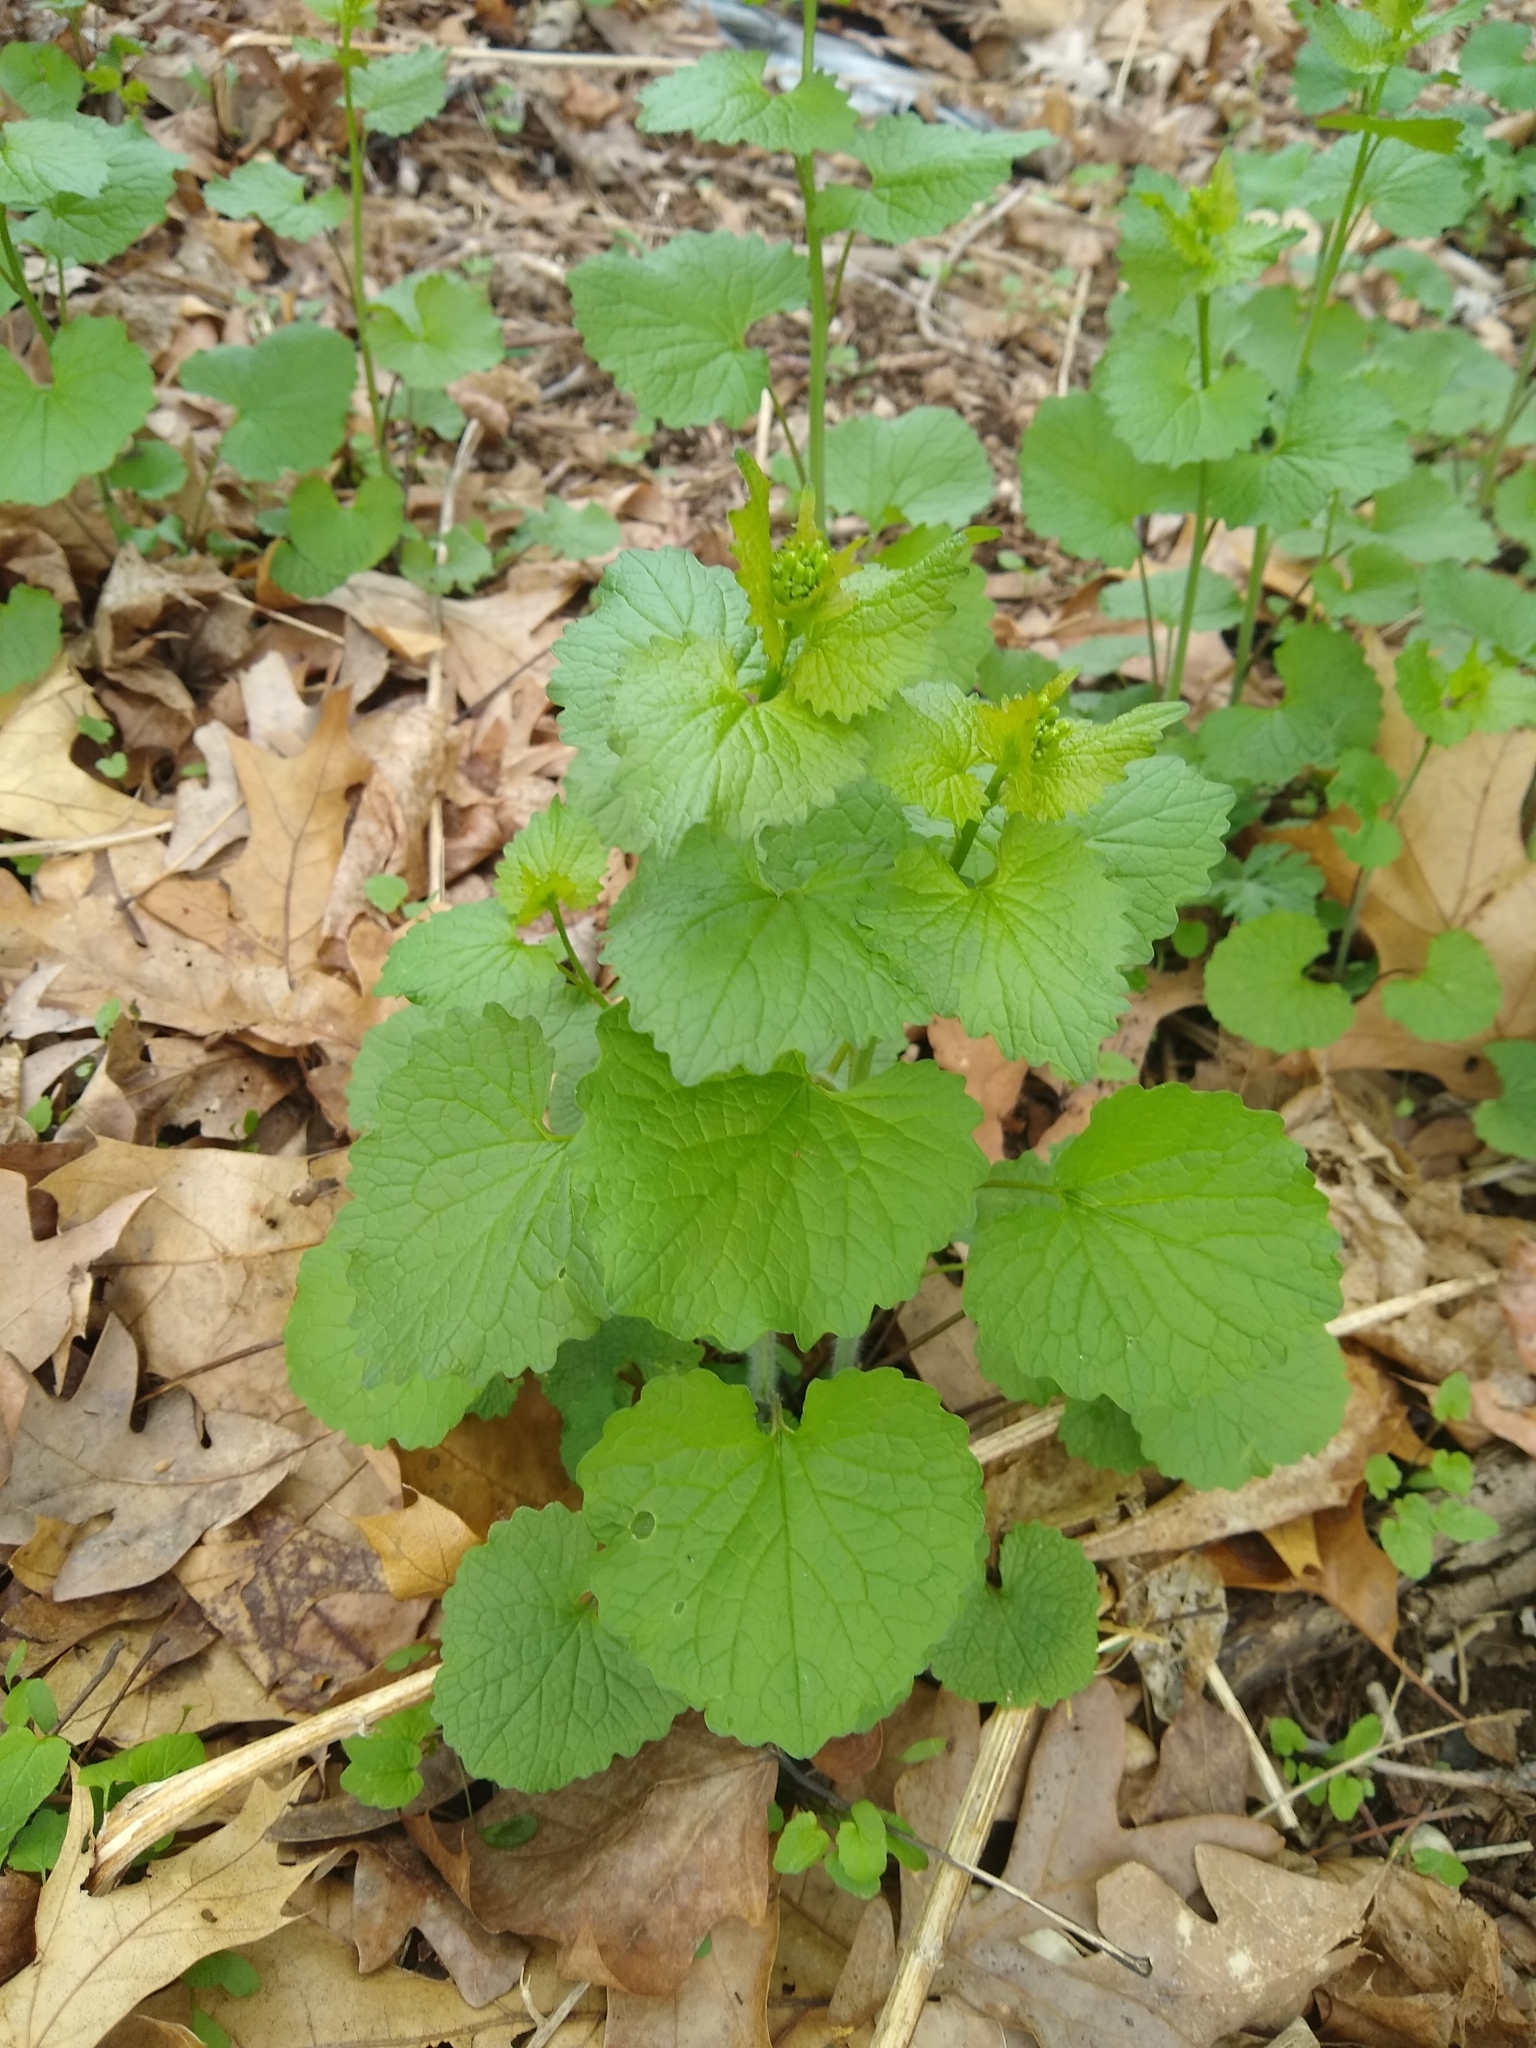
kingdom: Plantae
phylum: Tracheophyta
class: Magnoliopsida
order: Brassicales
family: Brassicaceae
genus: Alliaria
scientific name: Alliaria petiolata
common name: Garlic mustard
